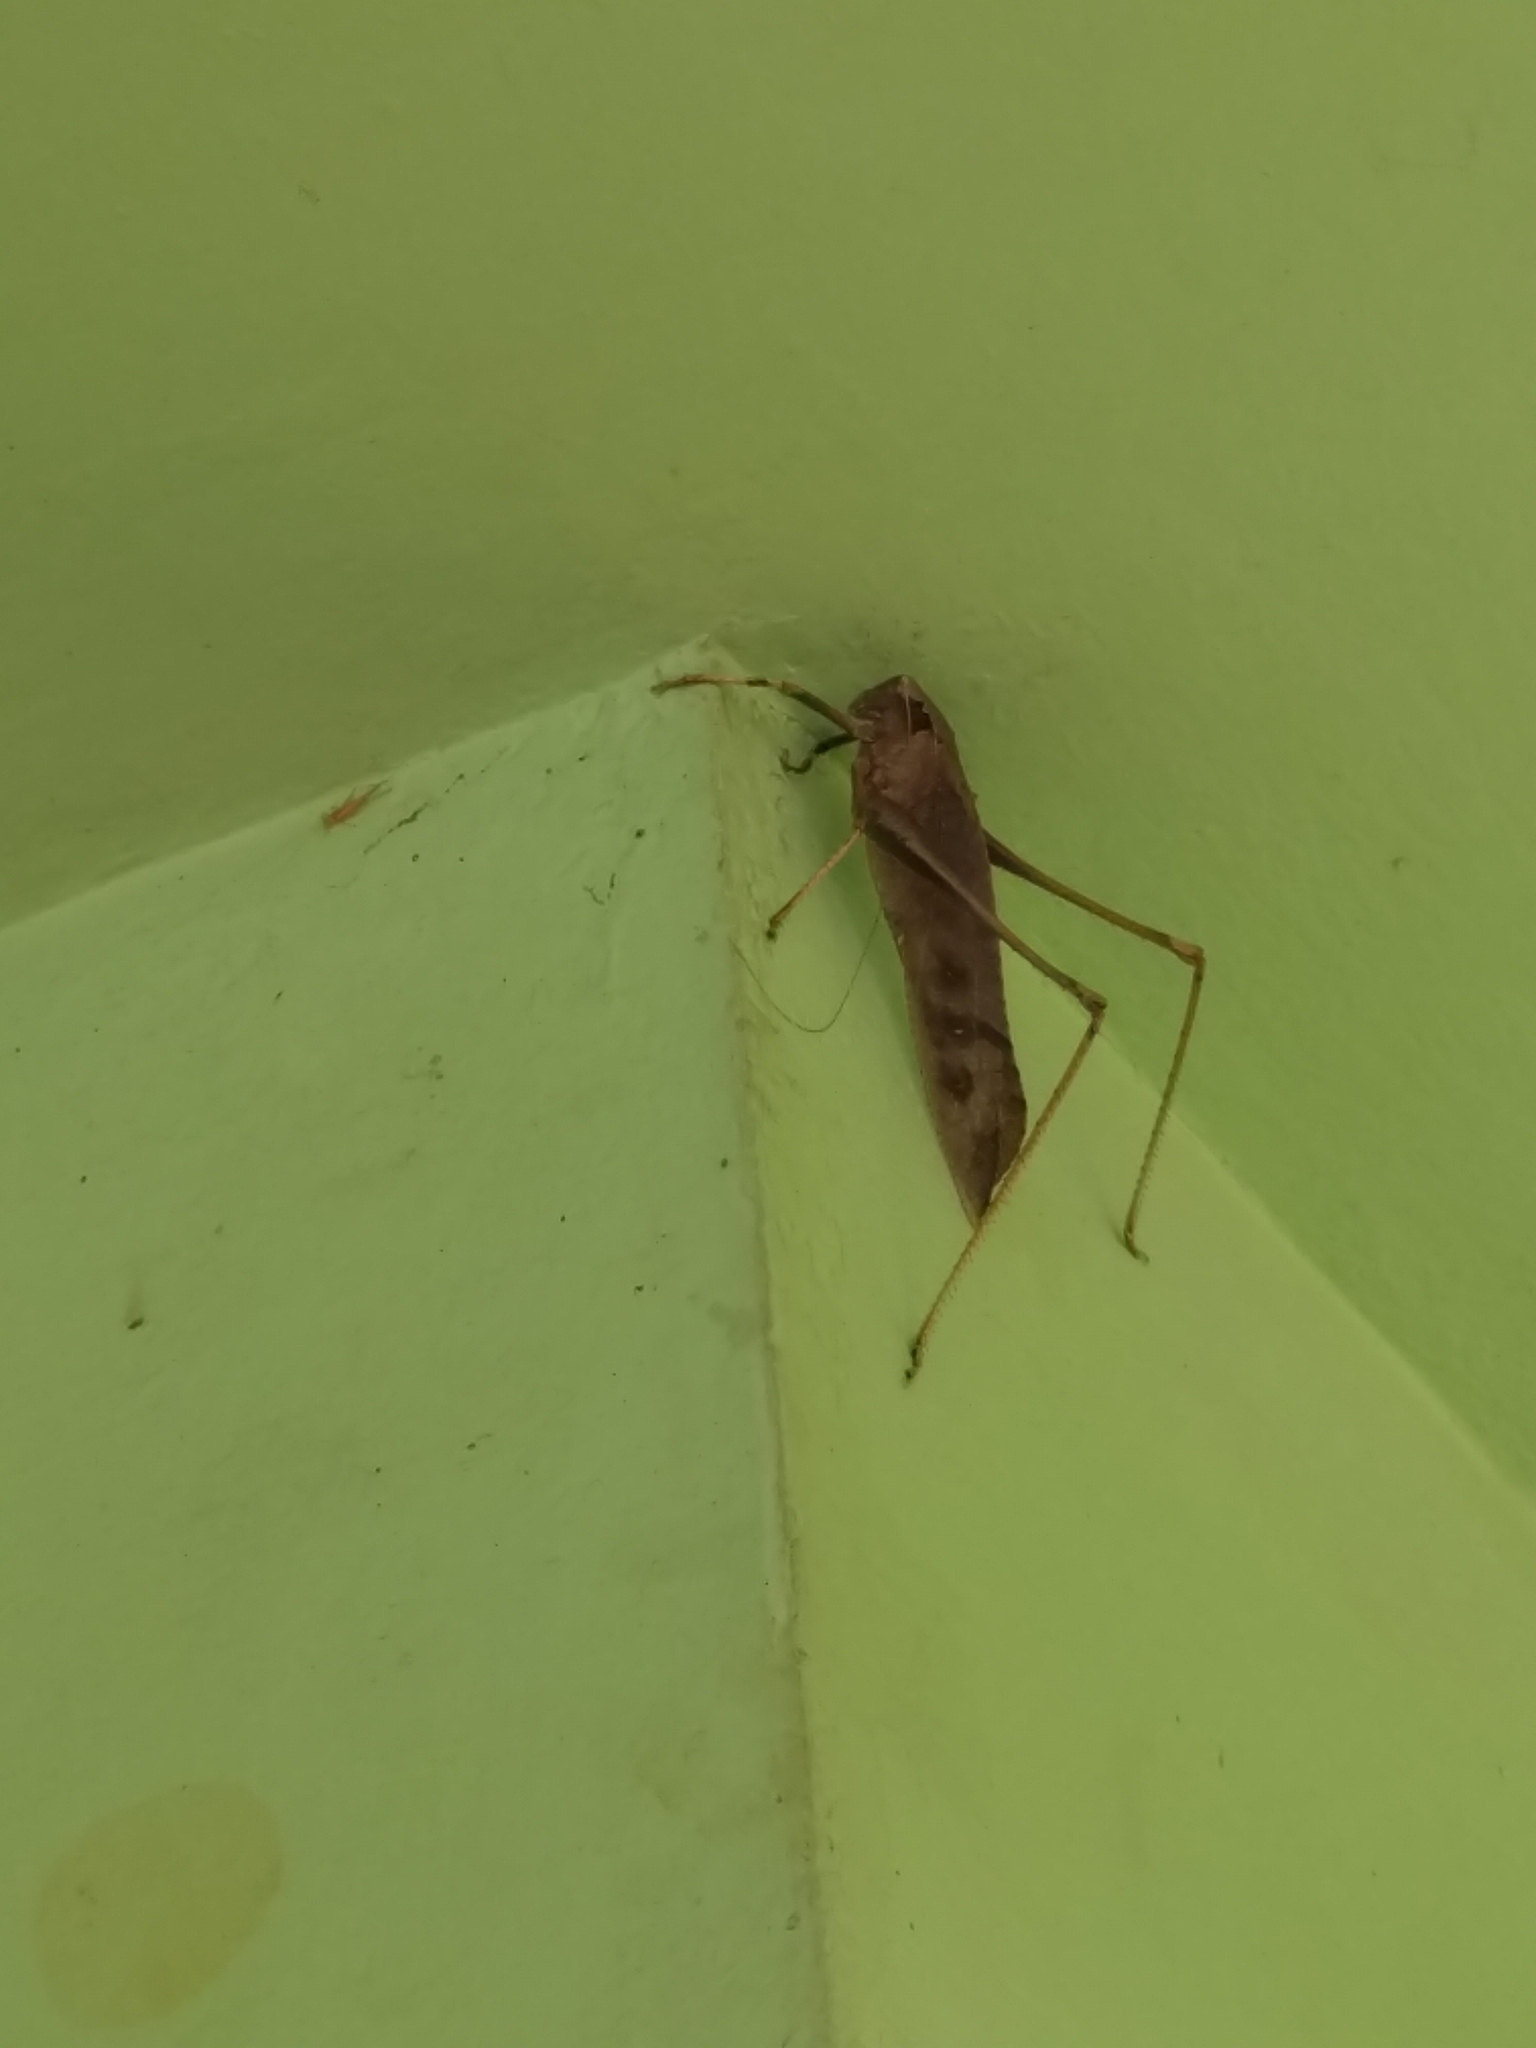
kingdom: Animalia
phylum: Arthropoda
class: Insecta
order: Orthoptera
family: Tettigoniidae
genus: Mecopoda
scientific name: Mecopoda elongata
